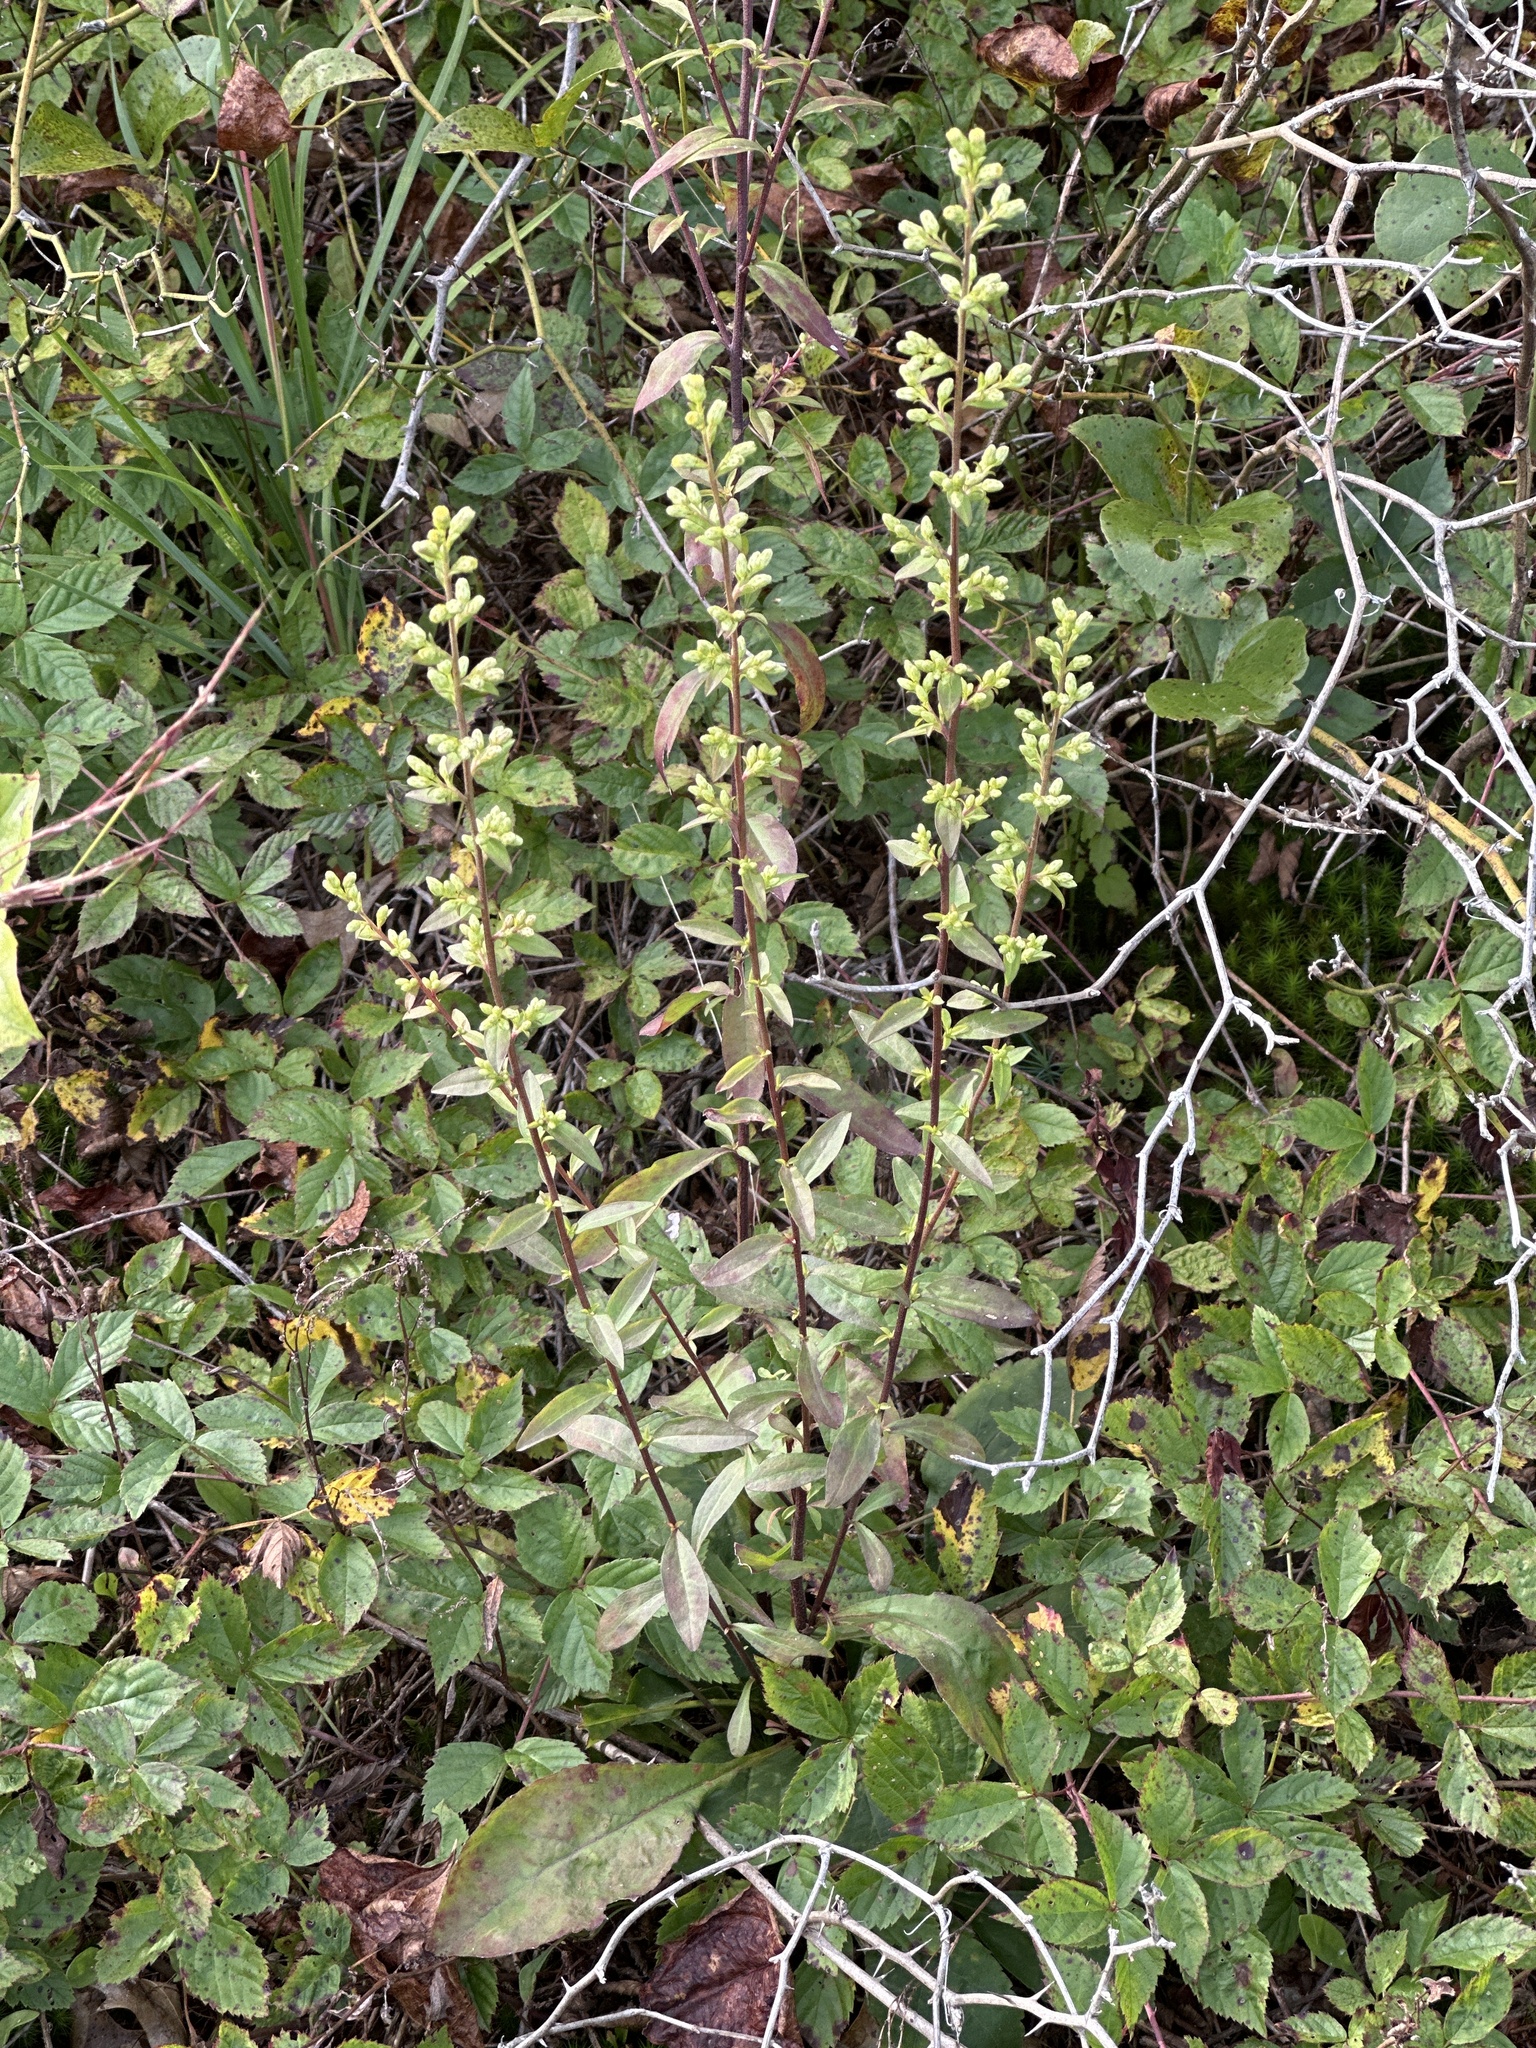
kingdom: Plantae
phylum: Tracheophyta
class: Magnoliopsida
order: Asterales
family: Asteraceae
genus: Solidago
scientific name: Solidago bicolor
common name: Silverrod
